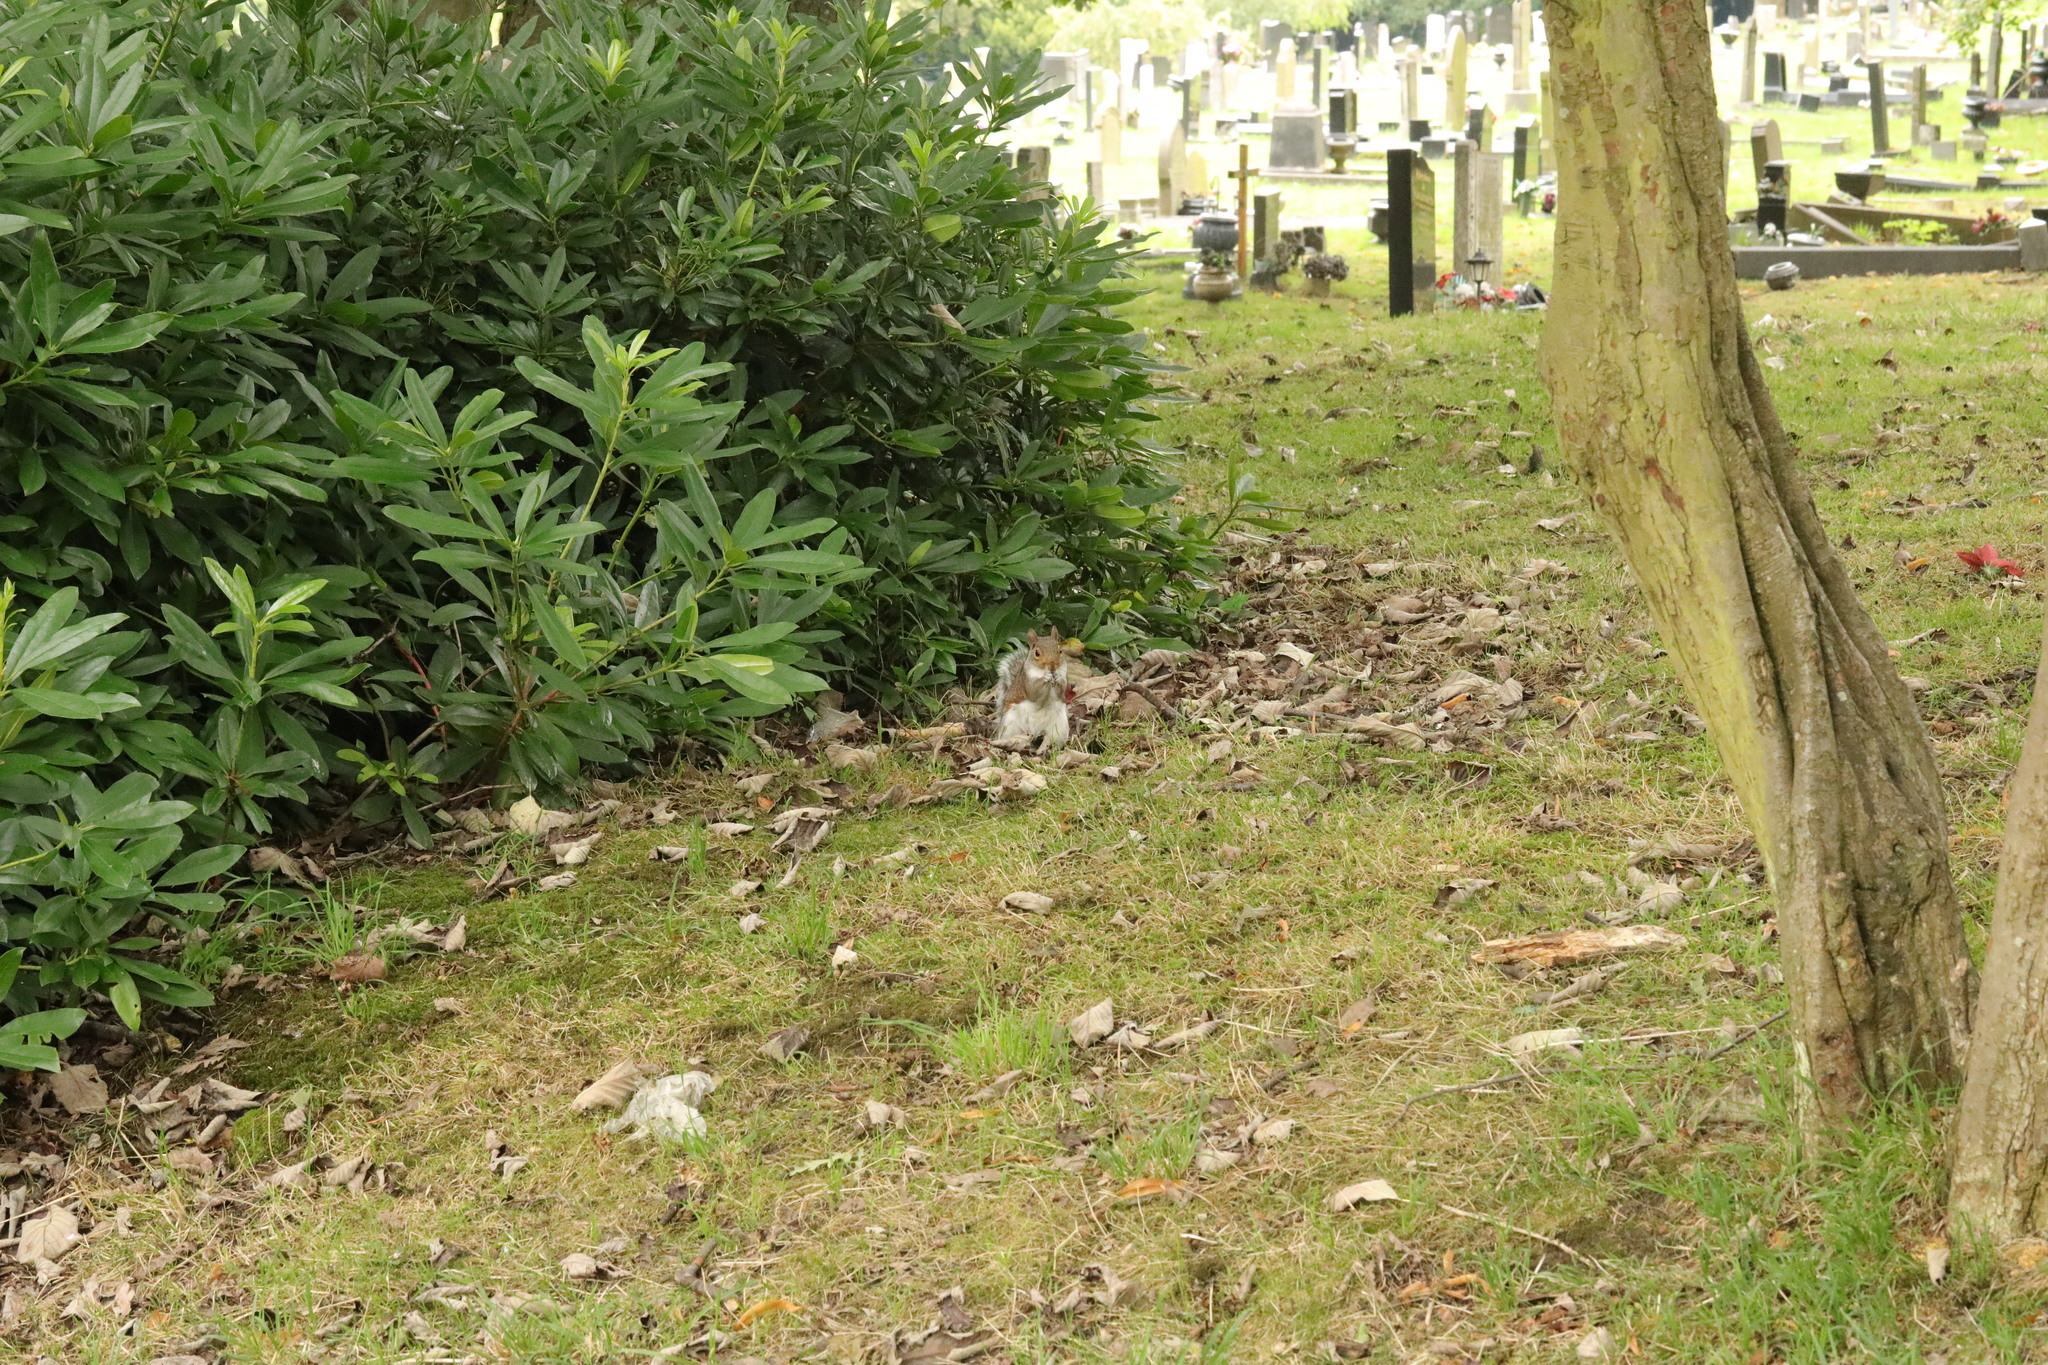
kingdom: Animalia
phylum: Chordata
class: Mammalia
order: Rodentia
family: Sciuridae
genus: Sciurus
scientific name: Sciurus carolinensis
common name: Eastern gray squirrel
